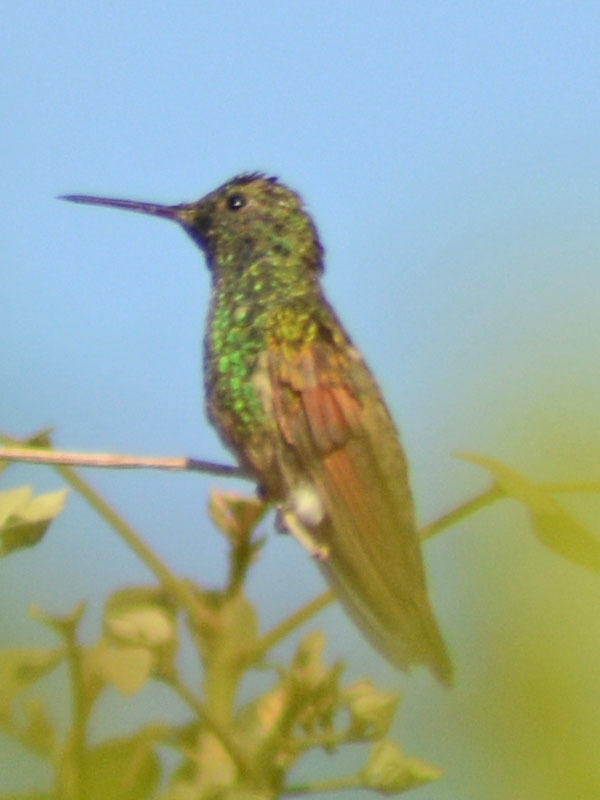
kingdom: Animalia
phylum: Chordata
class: Aves
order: Apodiformes
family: Trochilidae
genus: Saucerottia
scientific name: Saucerottia beryllina
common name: Berylline hummingbird
